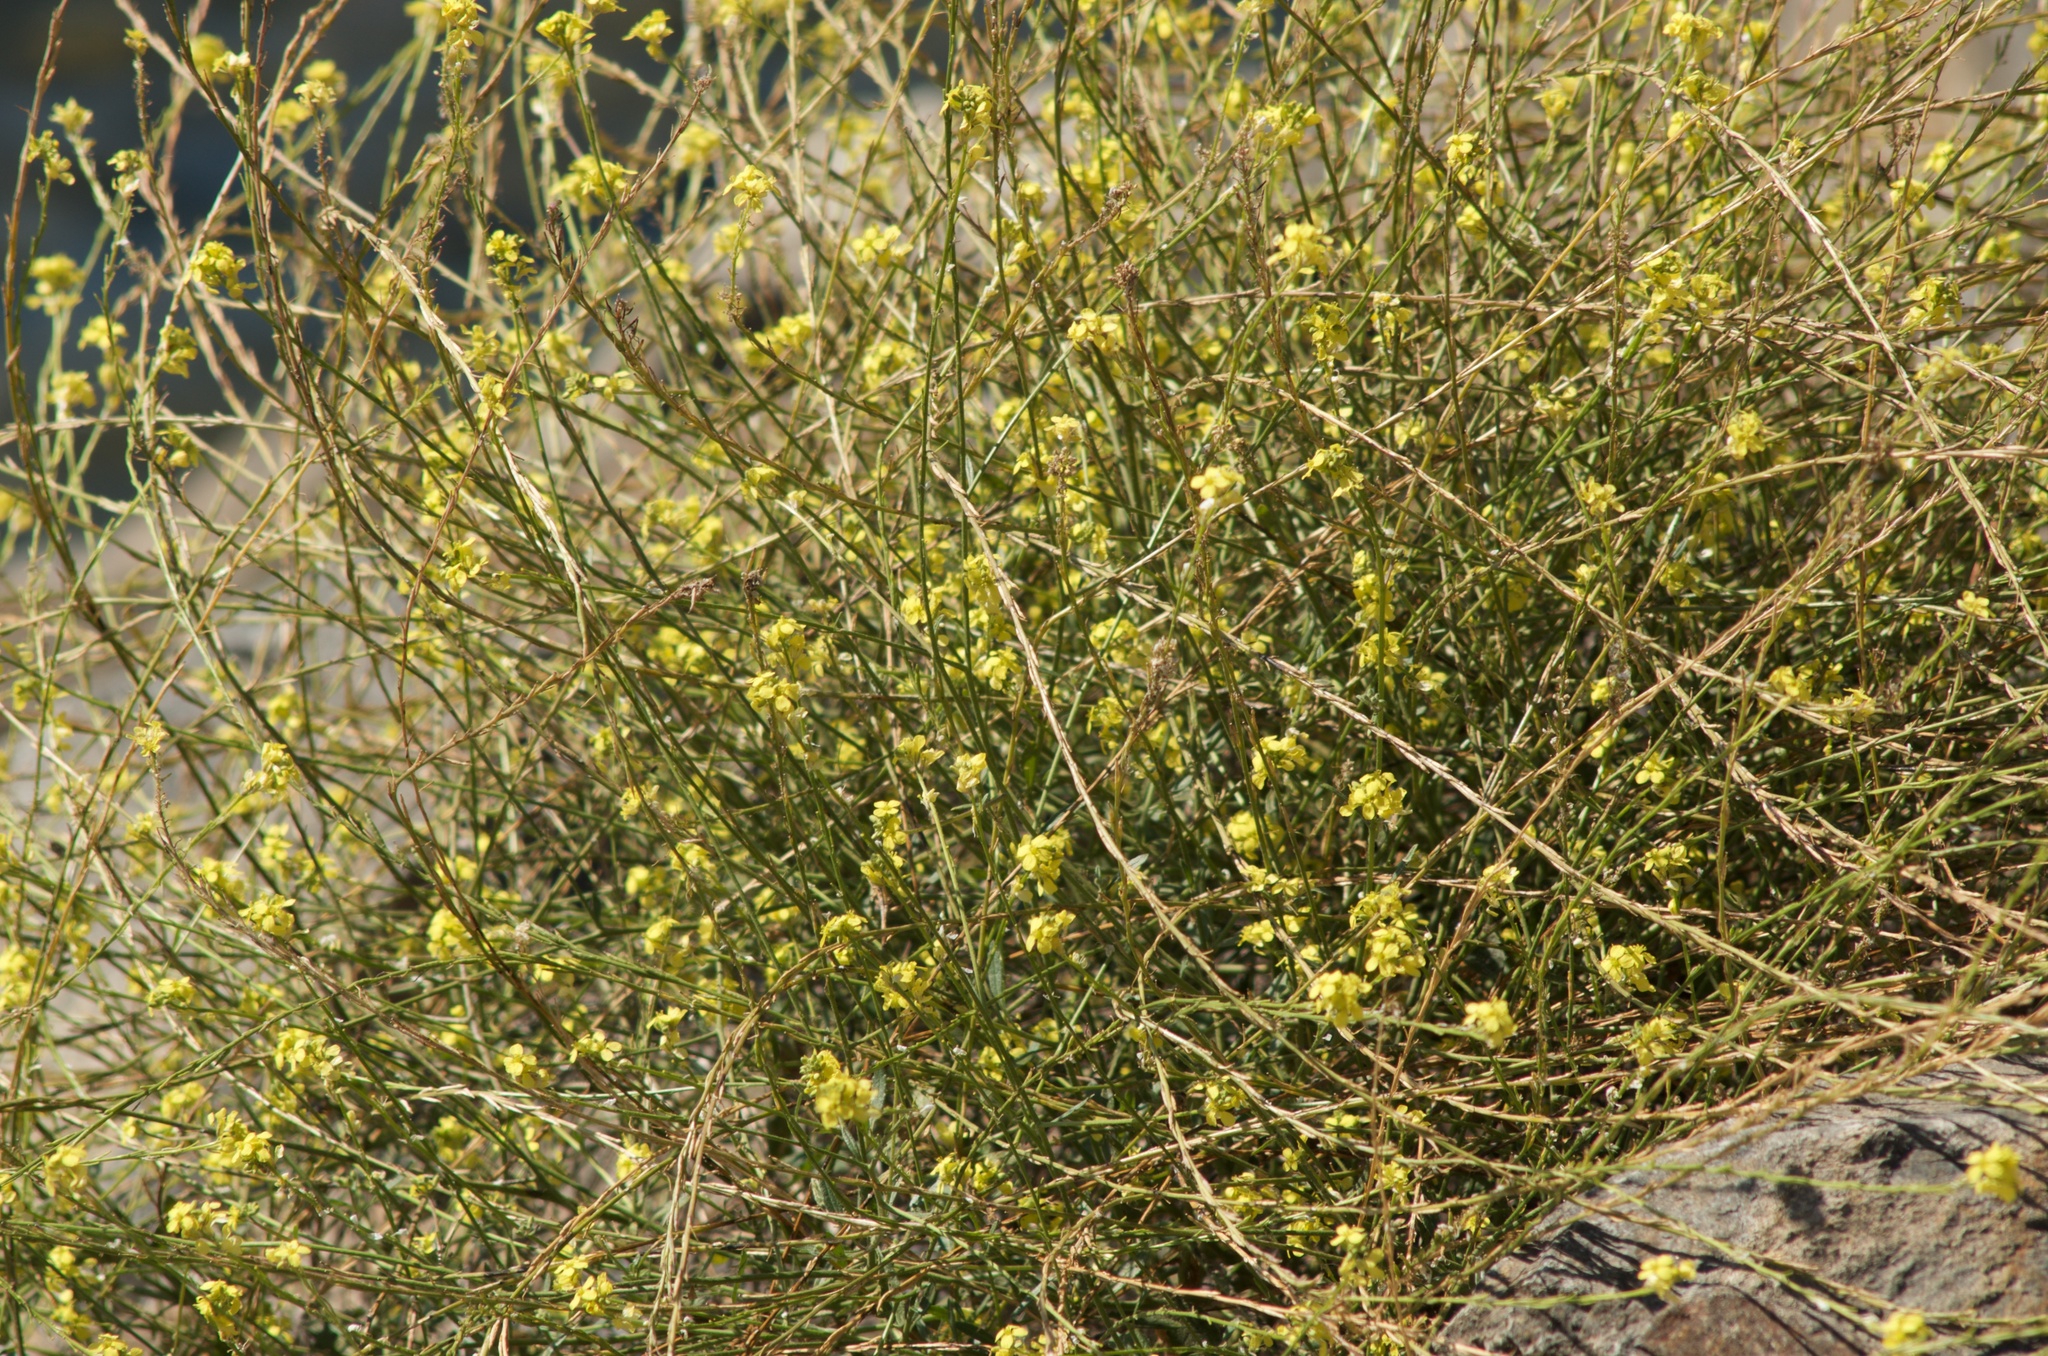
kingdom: Plantae
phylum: Tracheophyta
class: Magnoliopsida
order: Brassicales
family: Brassicaceae
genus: Hirschfeldia
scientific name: Hirschfeldia incana
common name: Hoary mustard
